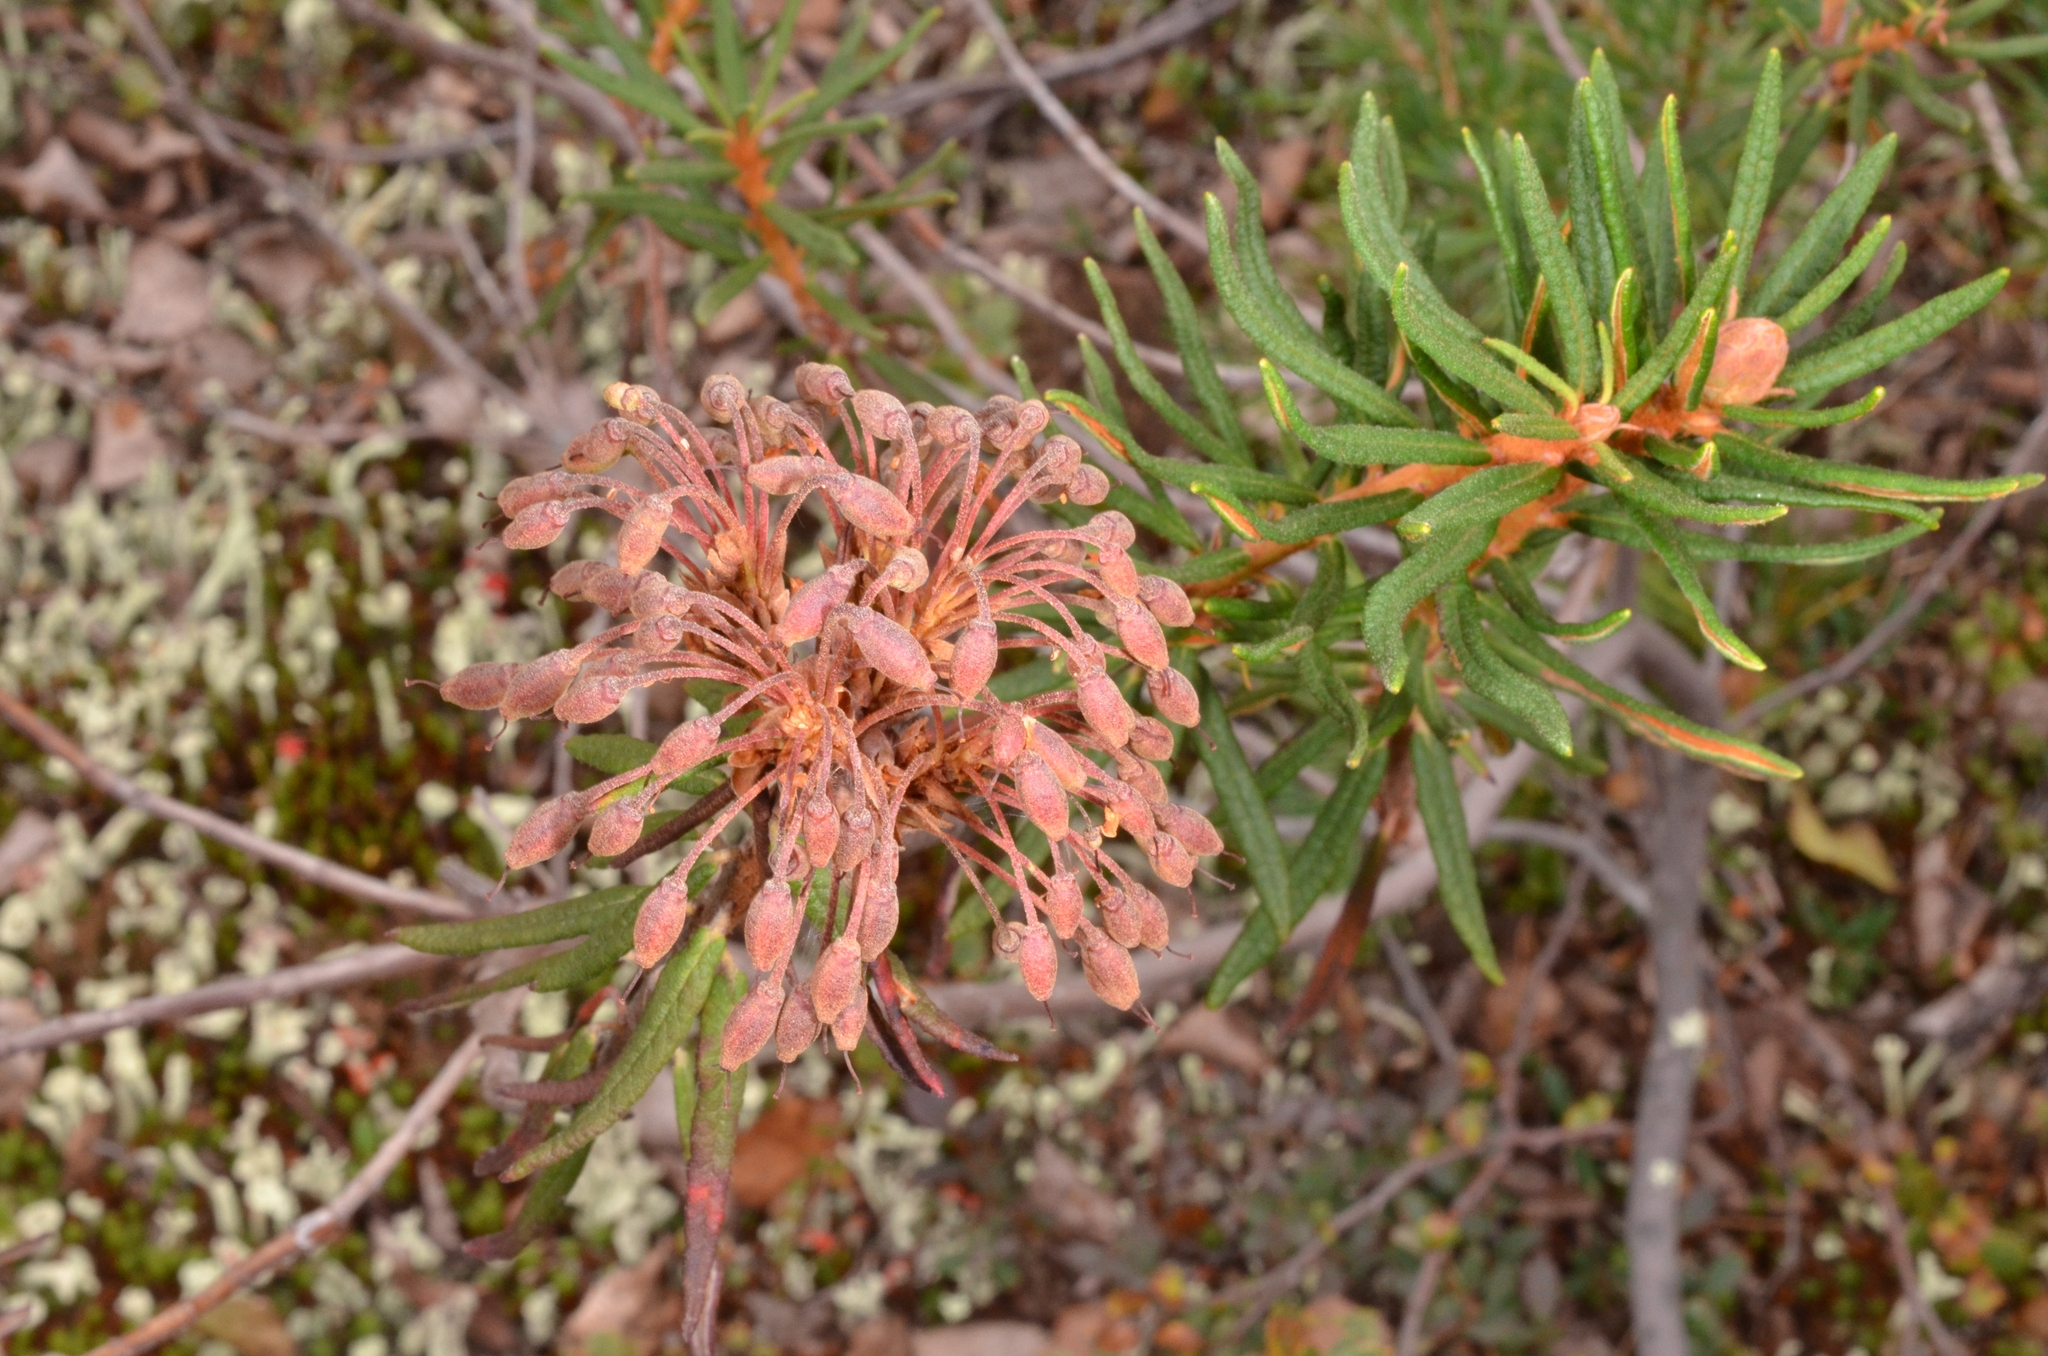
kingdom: Plantae
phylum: Tracheophyta
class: Magnoliopsida
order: Ericales
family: Ericaceae
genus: Rhododendron
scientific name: Rhododendron tomentosum
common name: Marsh labrador tea
